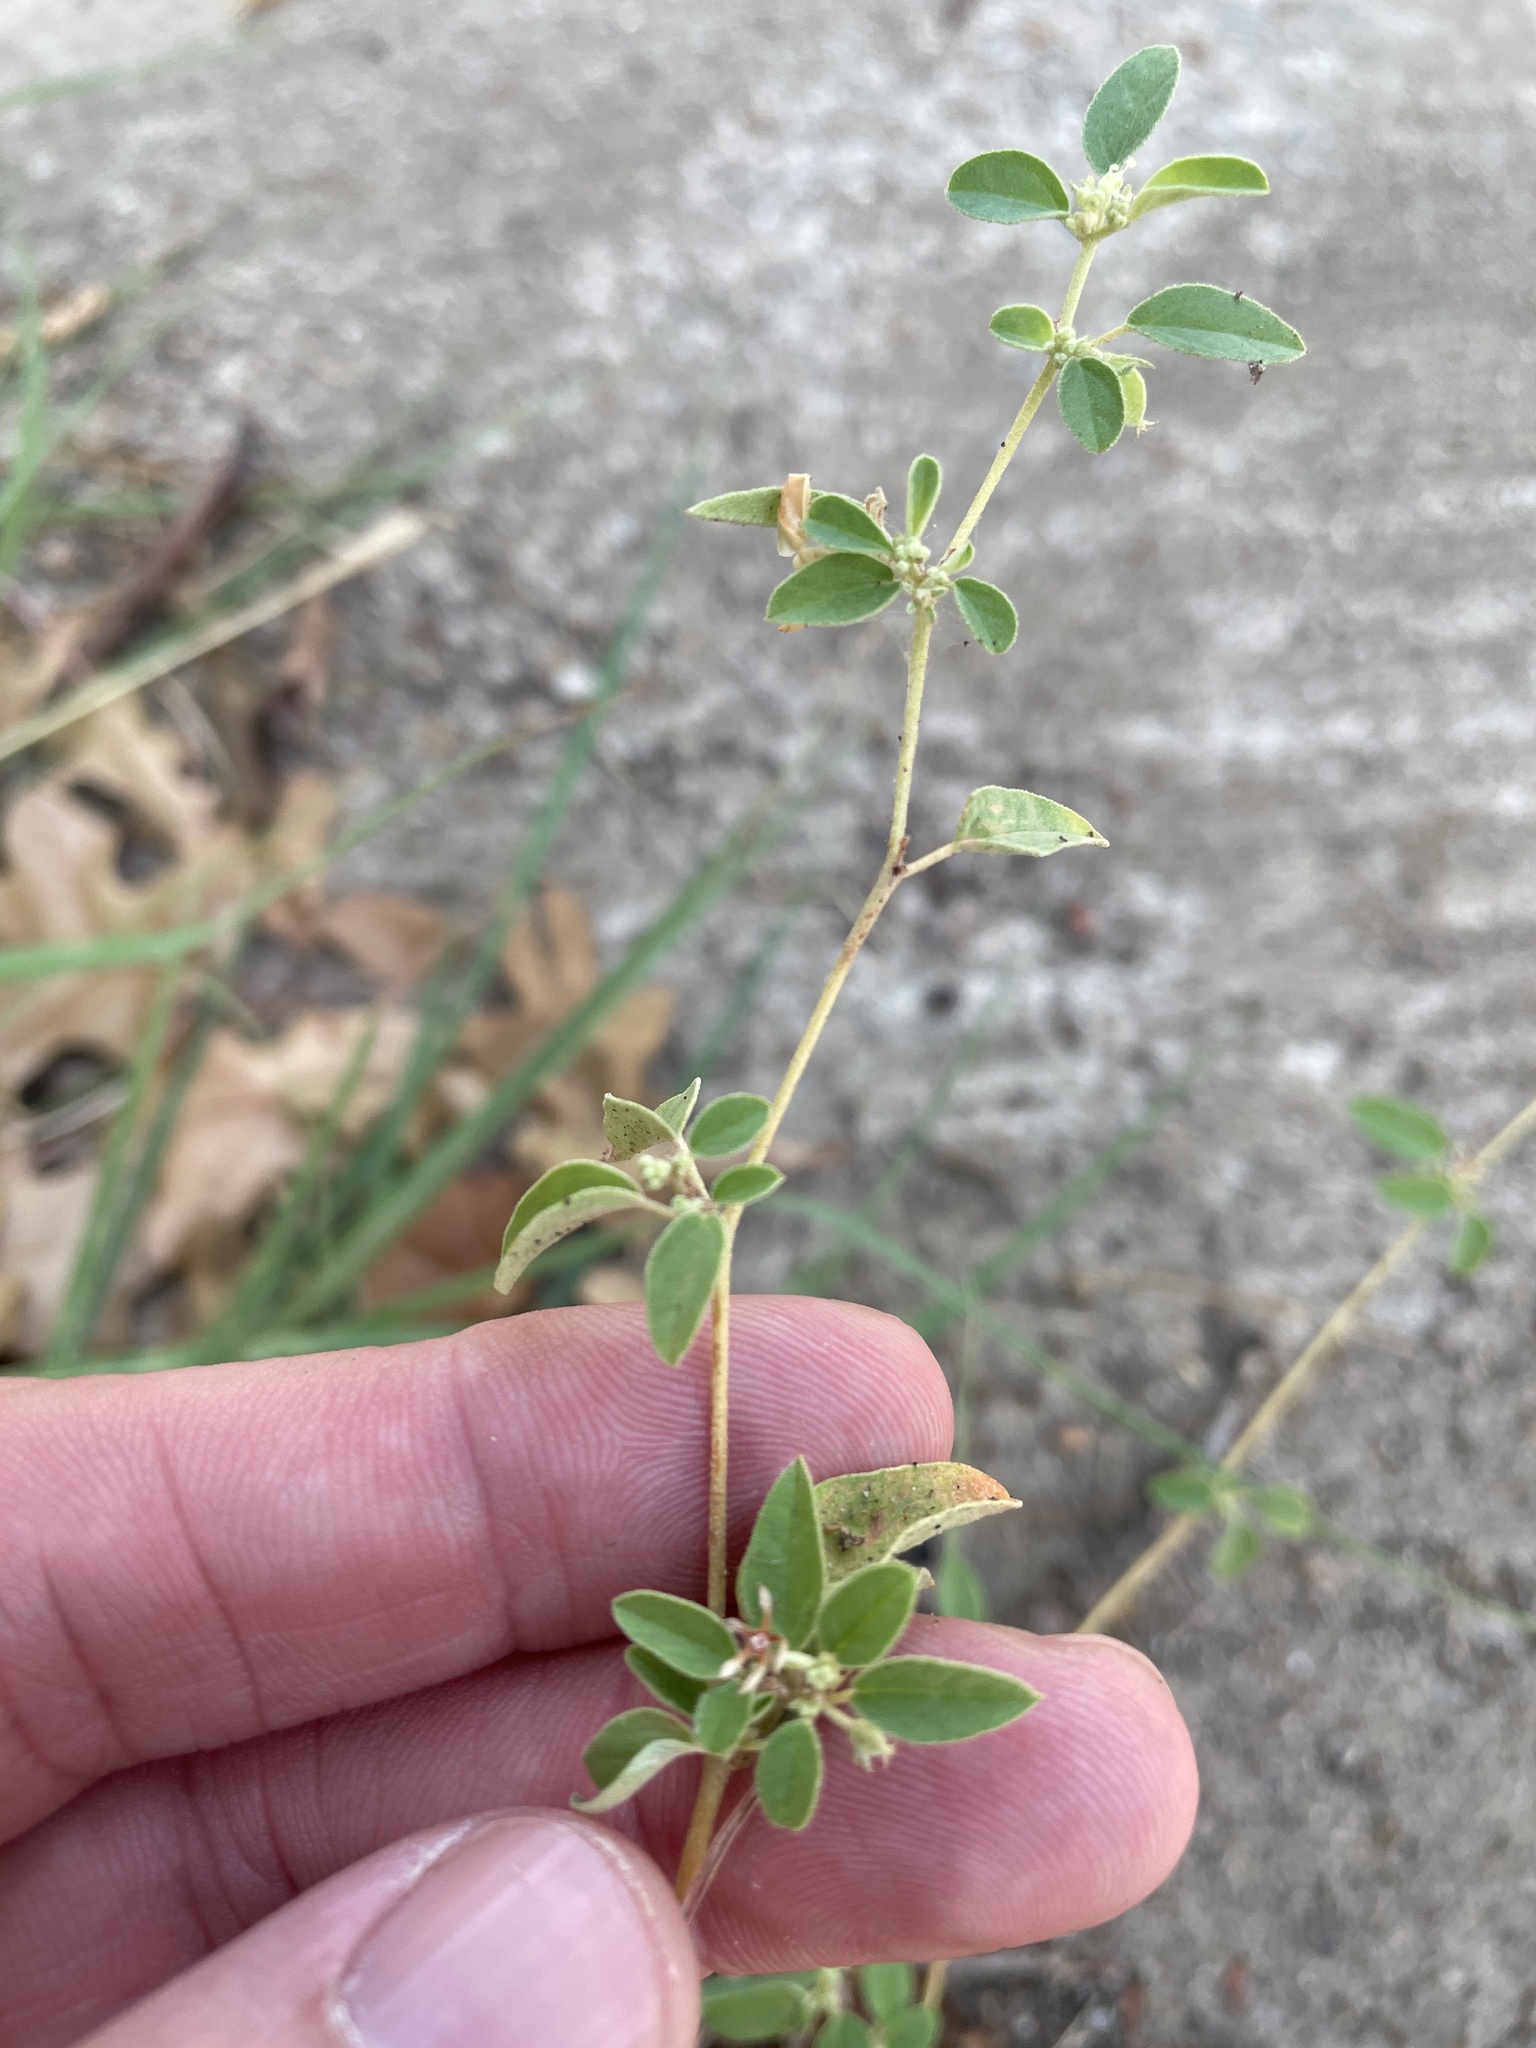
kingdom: Plantae
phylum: Tracheophyta
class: Magnoliopsida
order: Malpighiales
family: Euphorbiaceae
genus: Croton
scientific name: Croton monanthogynus
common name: One-seed croton
